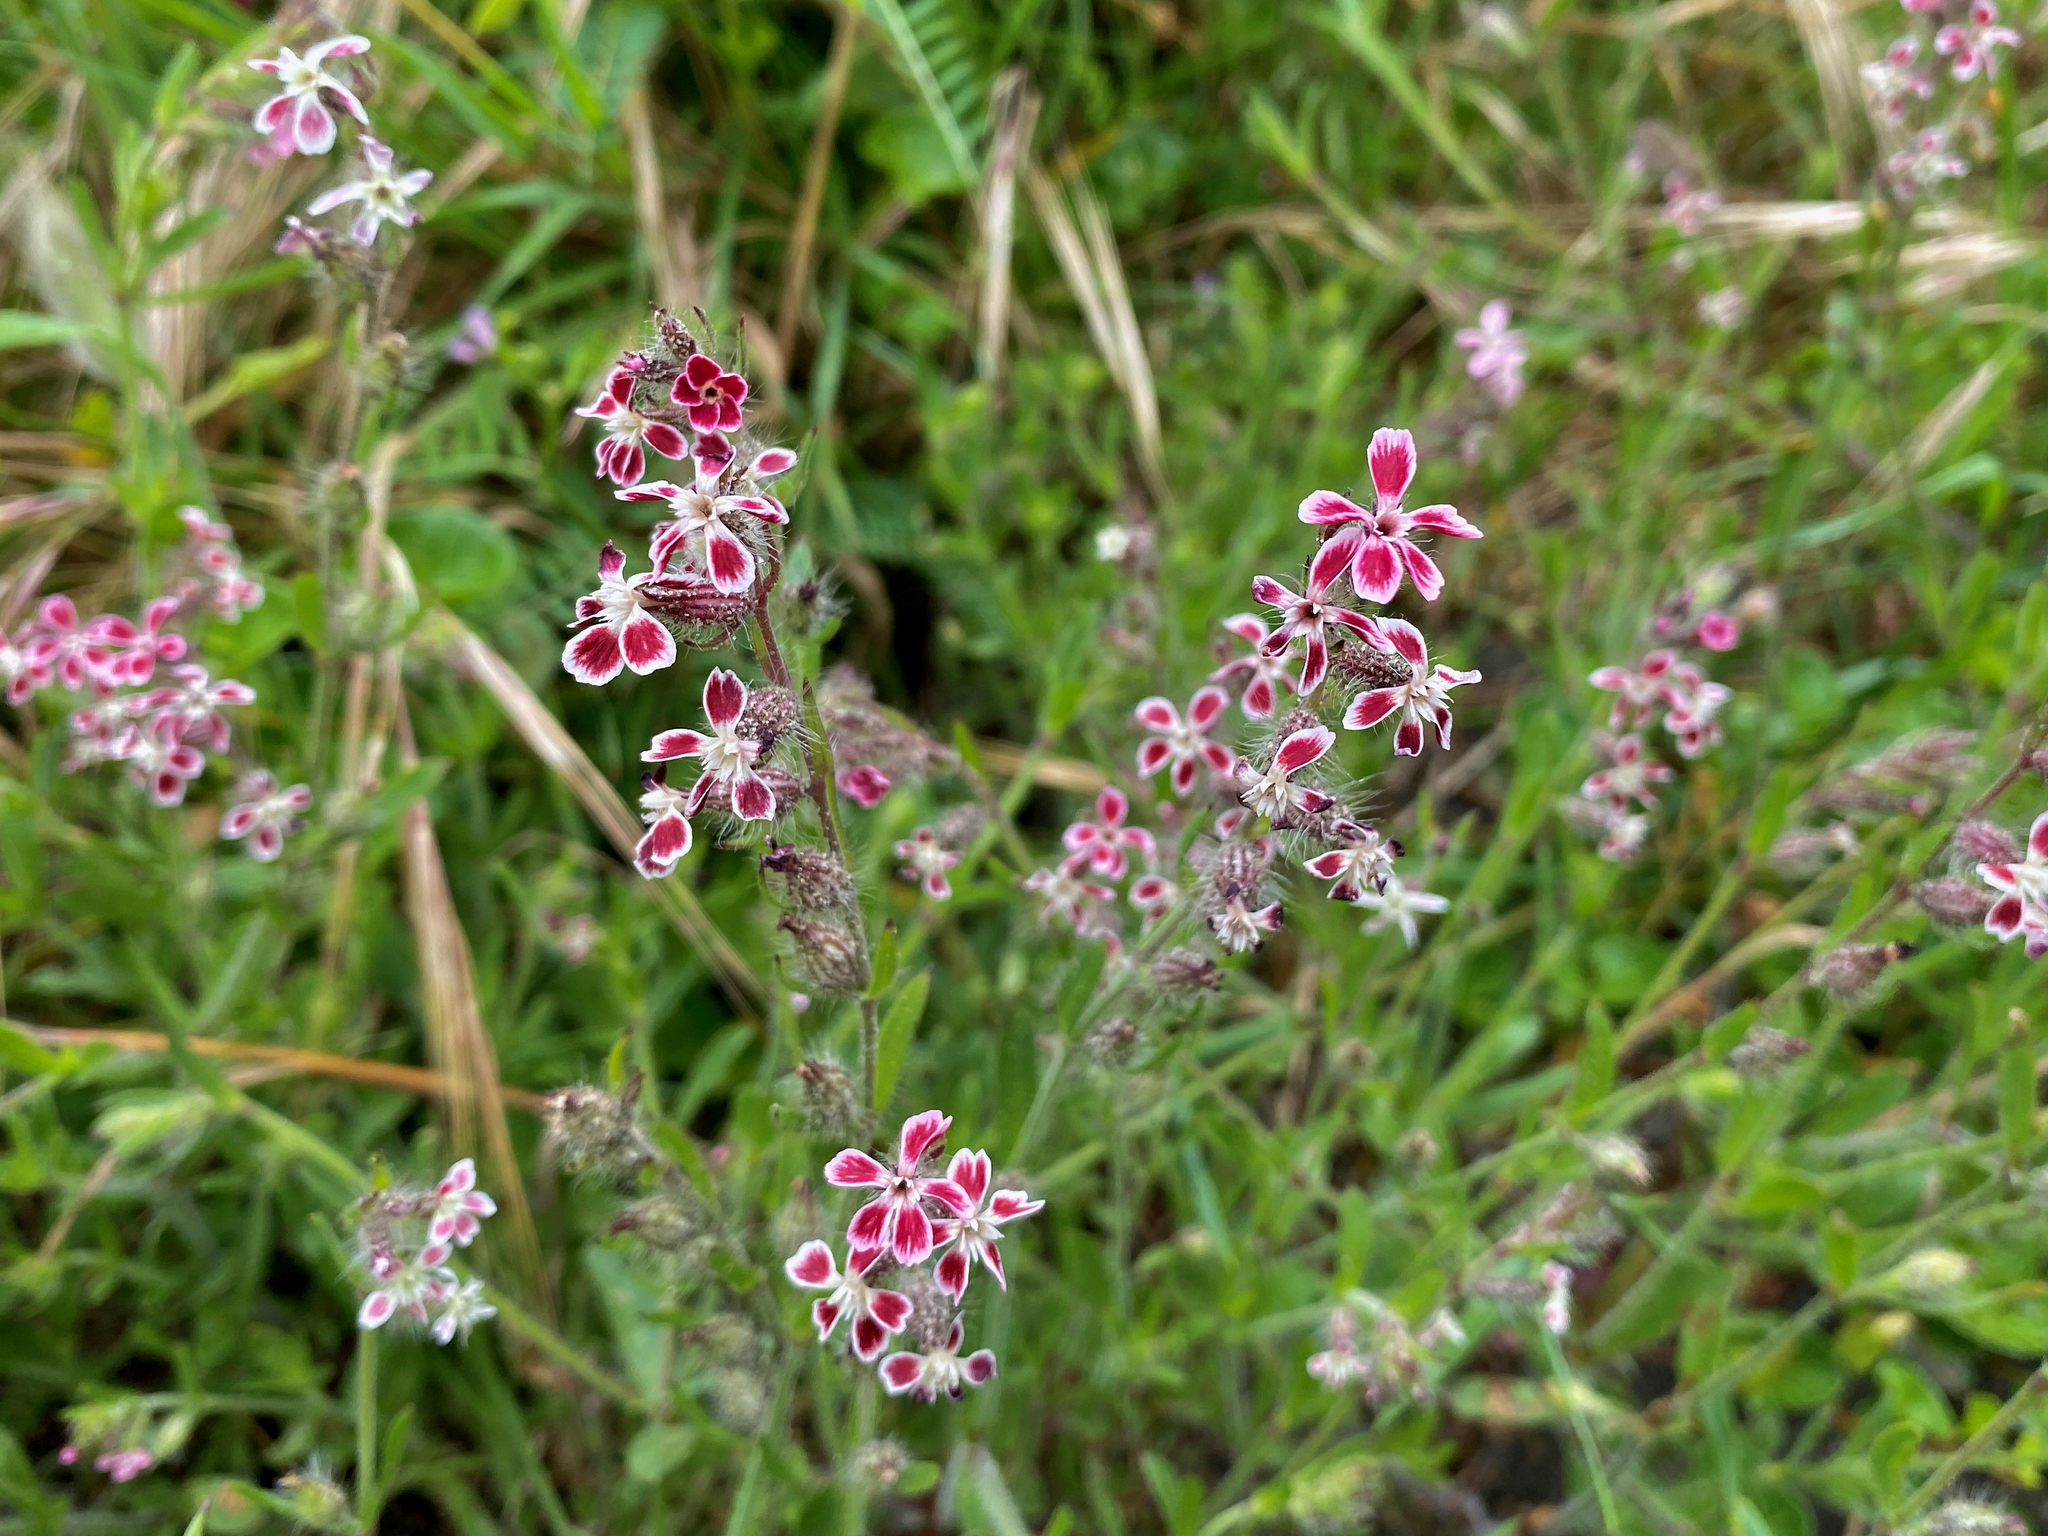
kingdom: Plantae
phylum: Tracheophyta
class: Magnoliopsida
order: Caryophyllales
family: Caryophyllaceae
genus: Silene
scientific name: Silene gallica
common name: Small-flowered catchfly
